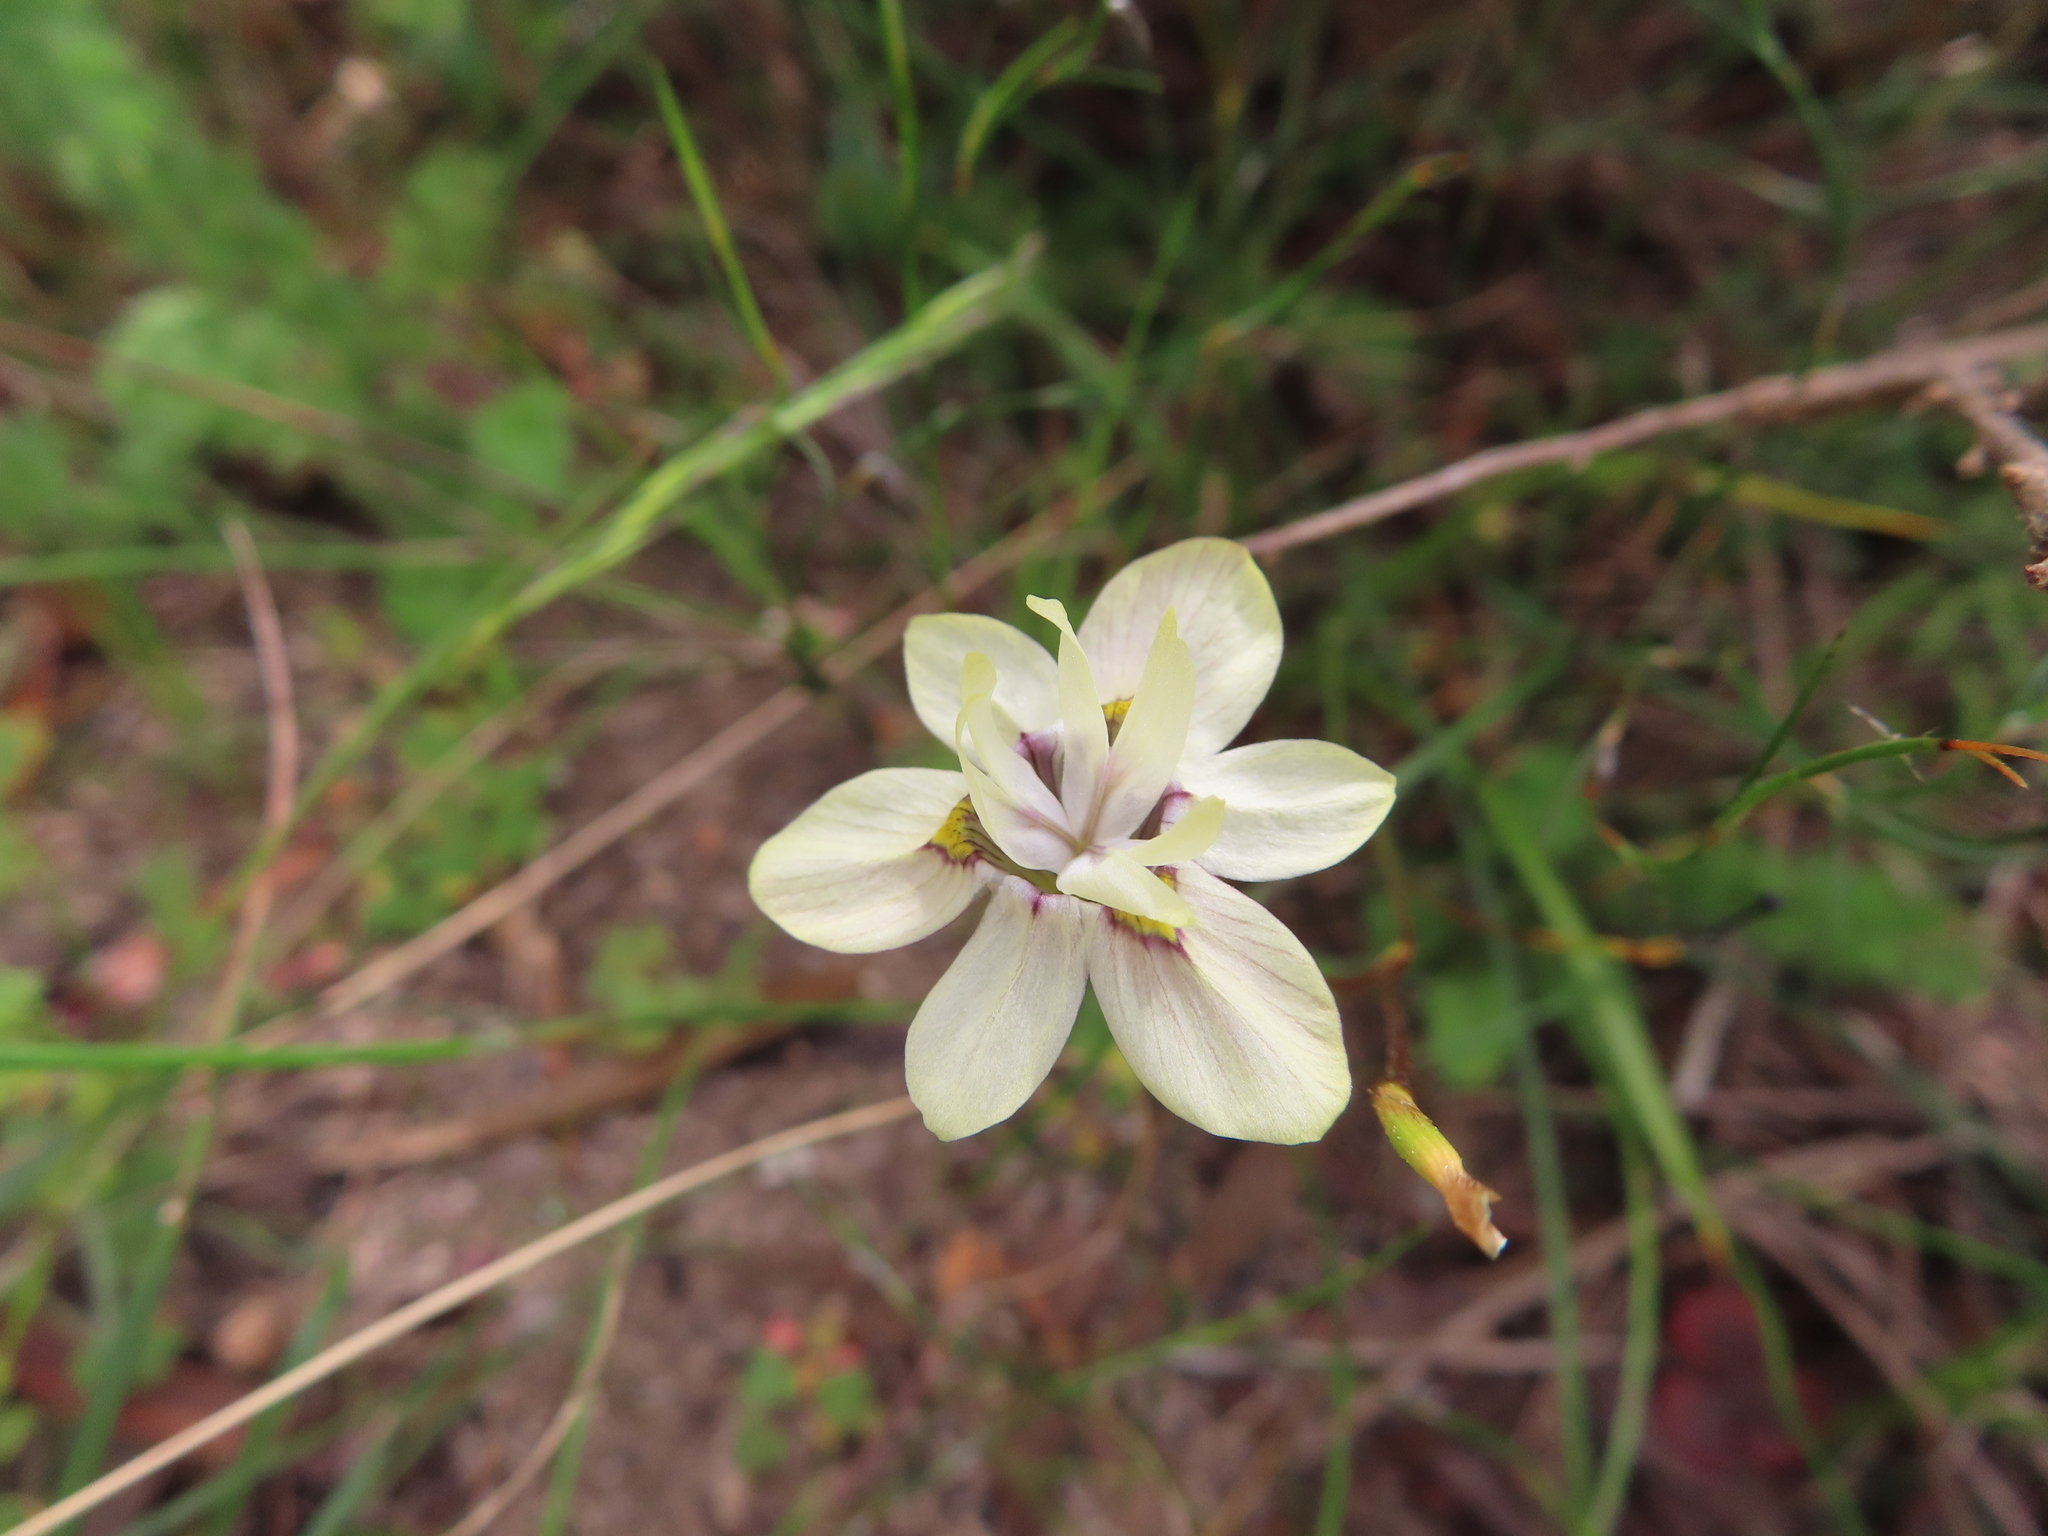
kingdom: Plantae
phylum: Tracheophyta
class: Liliopsida
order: Asparagales
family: Iridaceae
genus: Moraea
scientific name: Moraea gawleri
